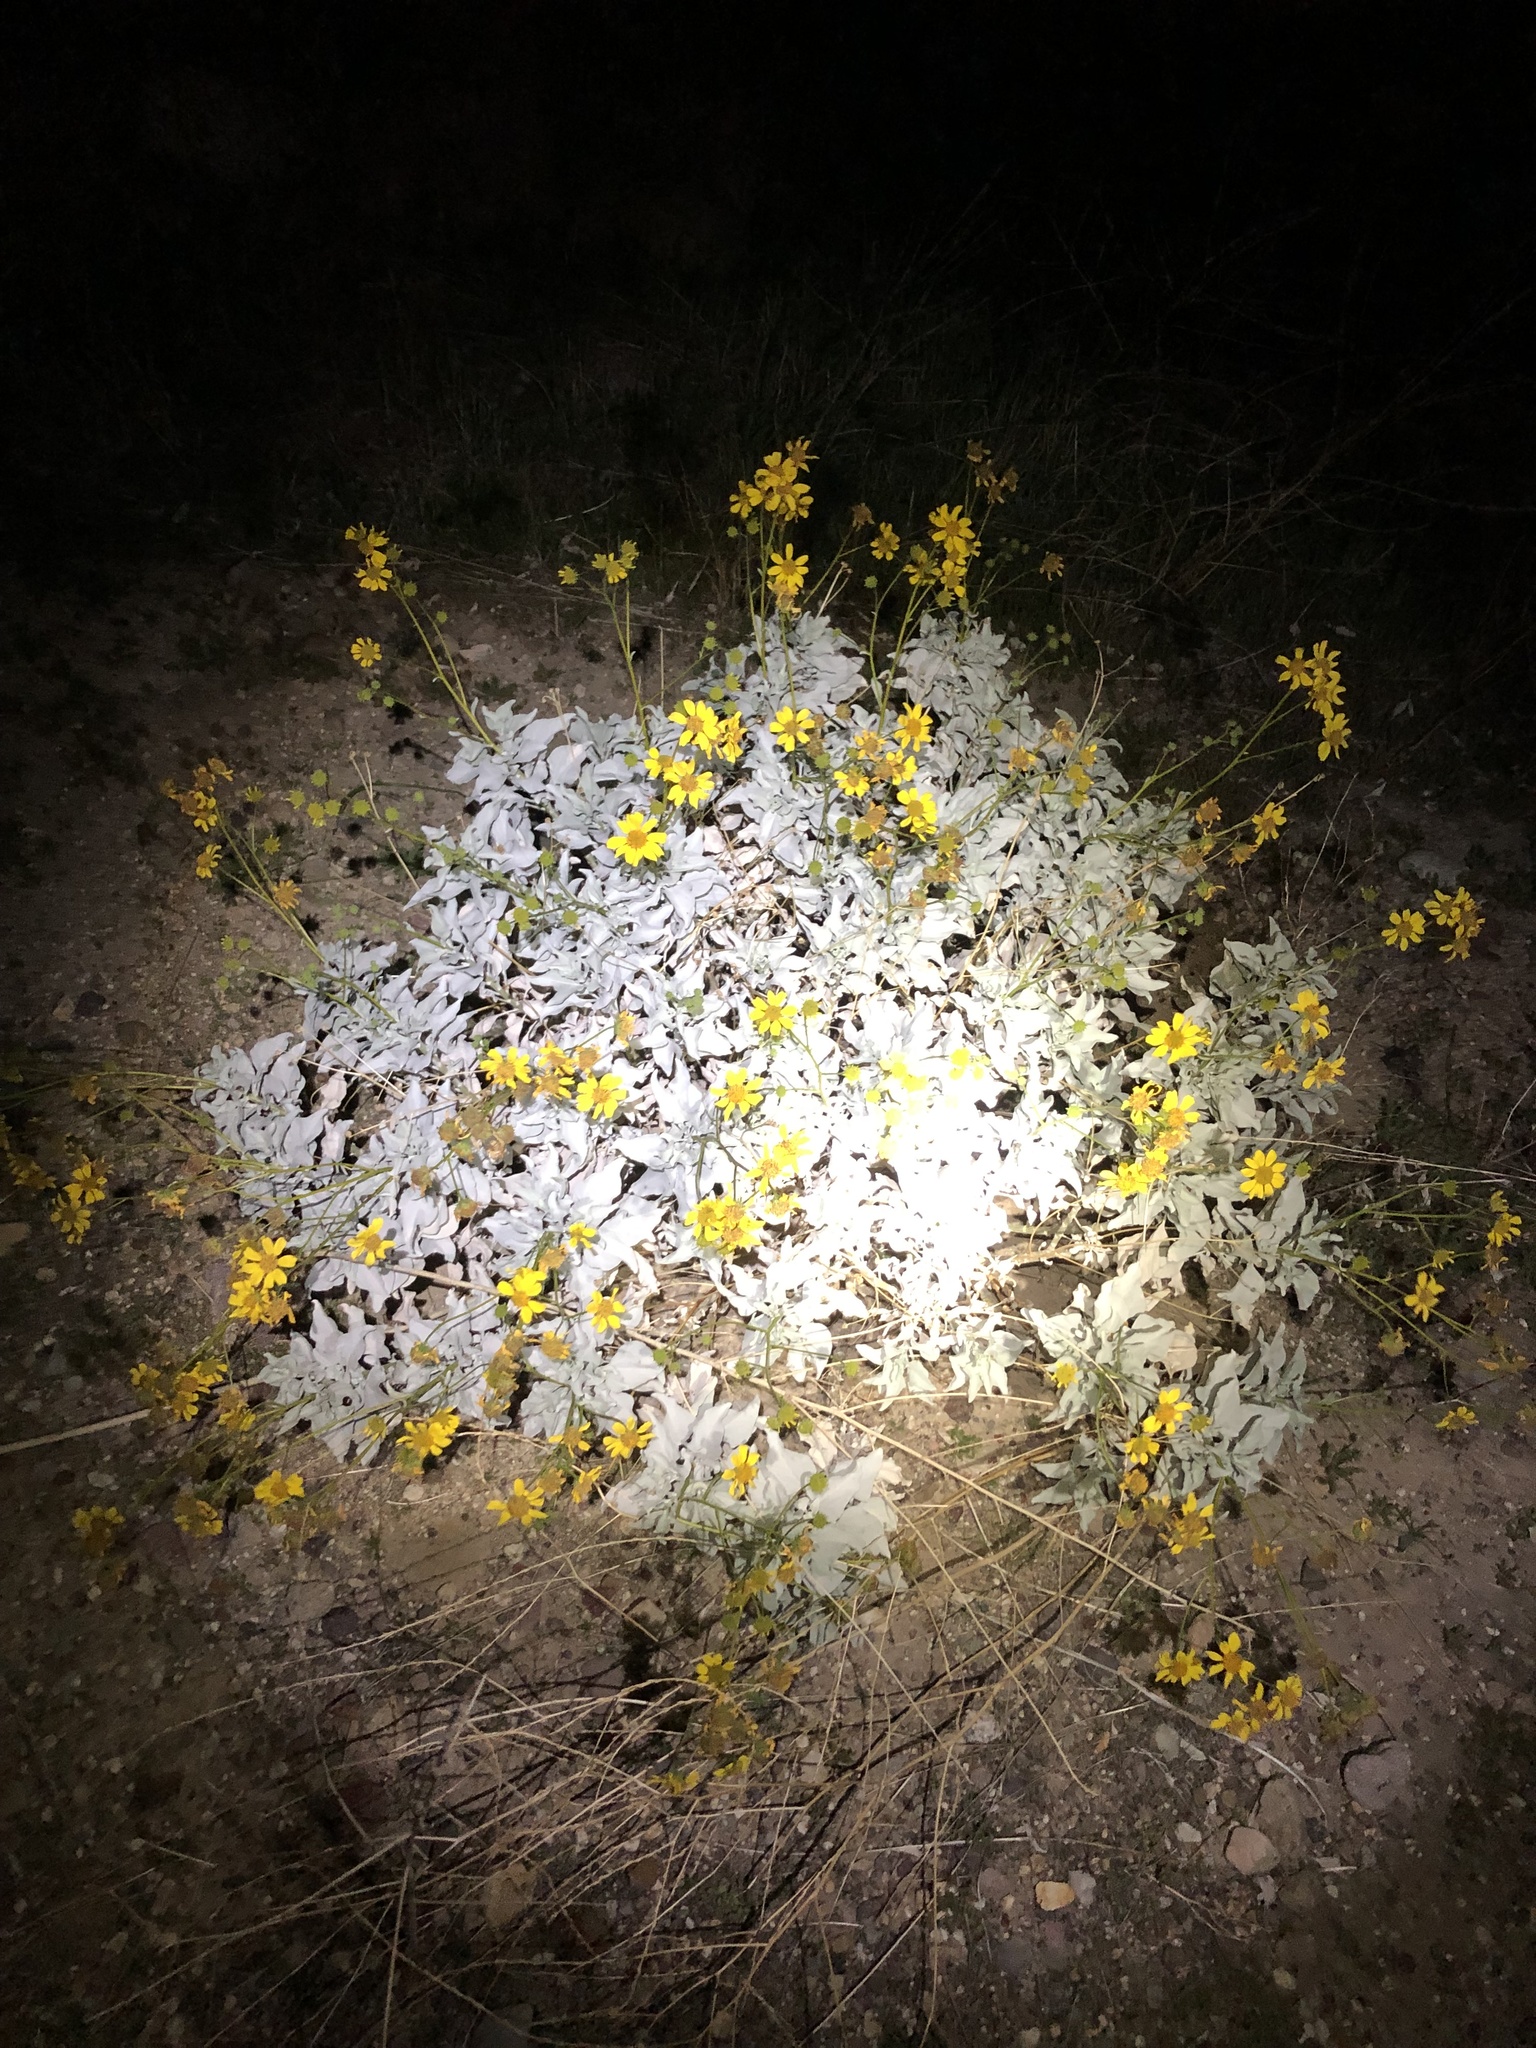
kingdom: Plantae
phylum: Tracheophyta
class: Magnoliopsida
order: Asterales
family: Asteraceae
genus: Encelia
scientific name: Encelia farinosa
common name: Brittlebush
